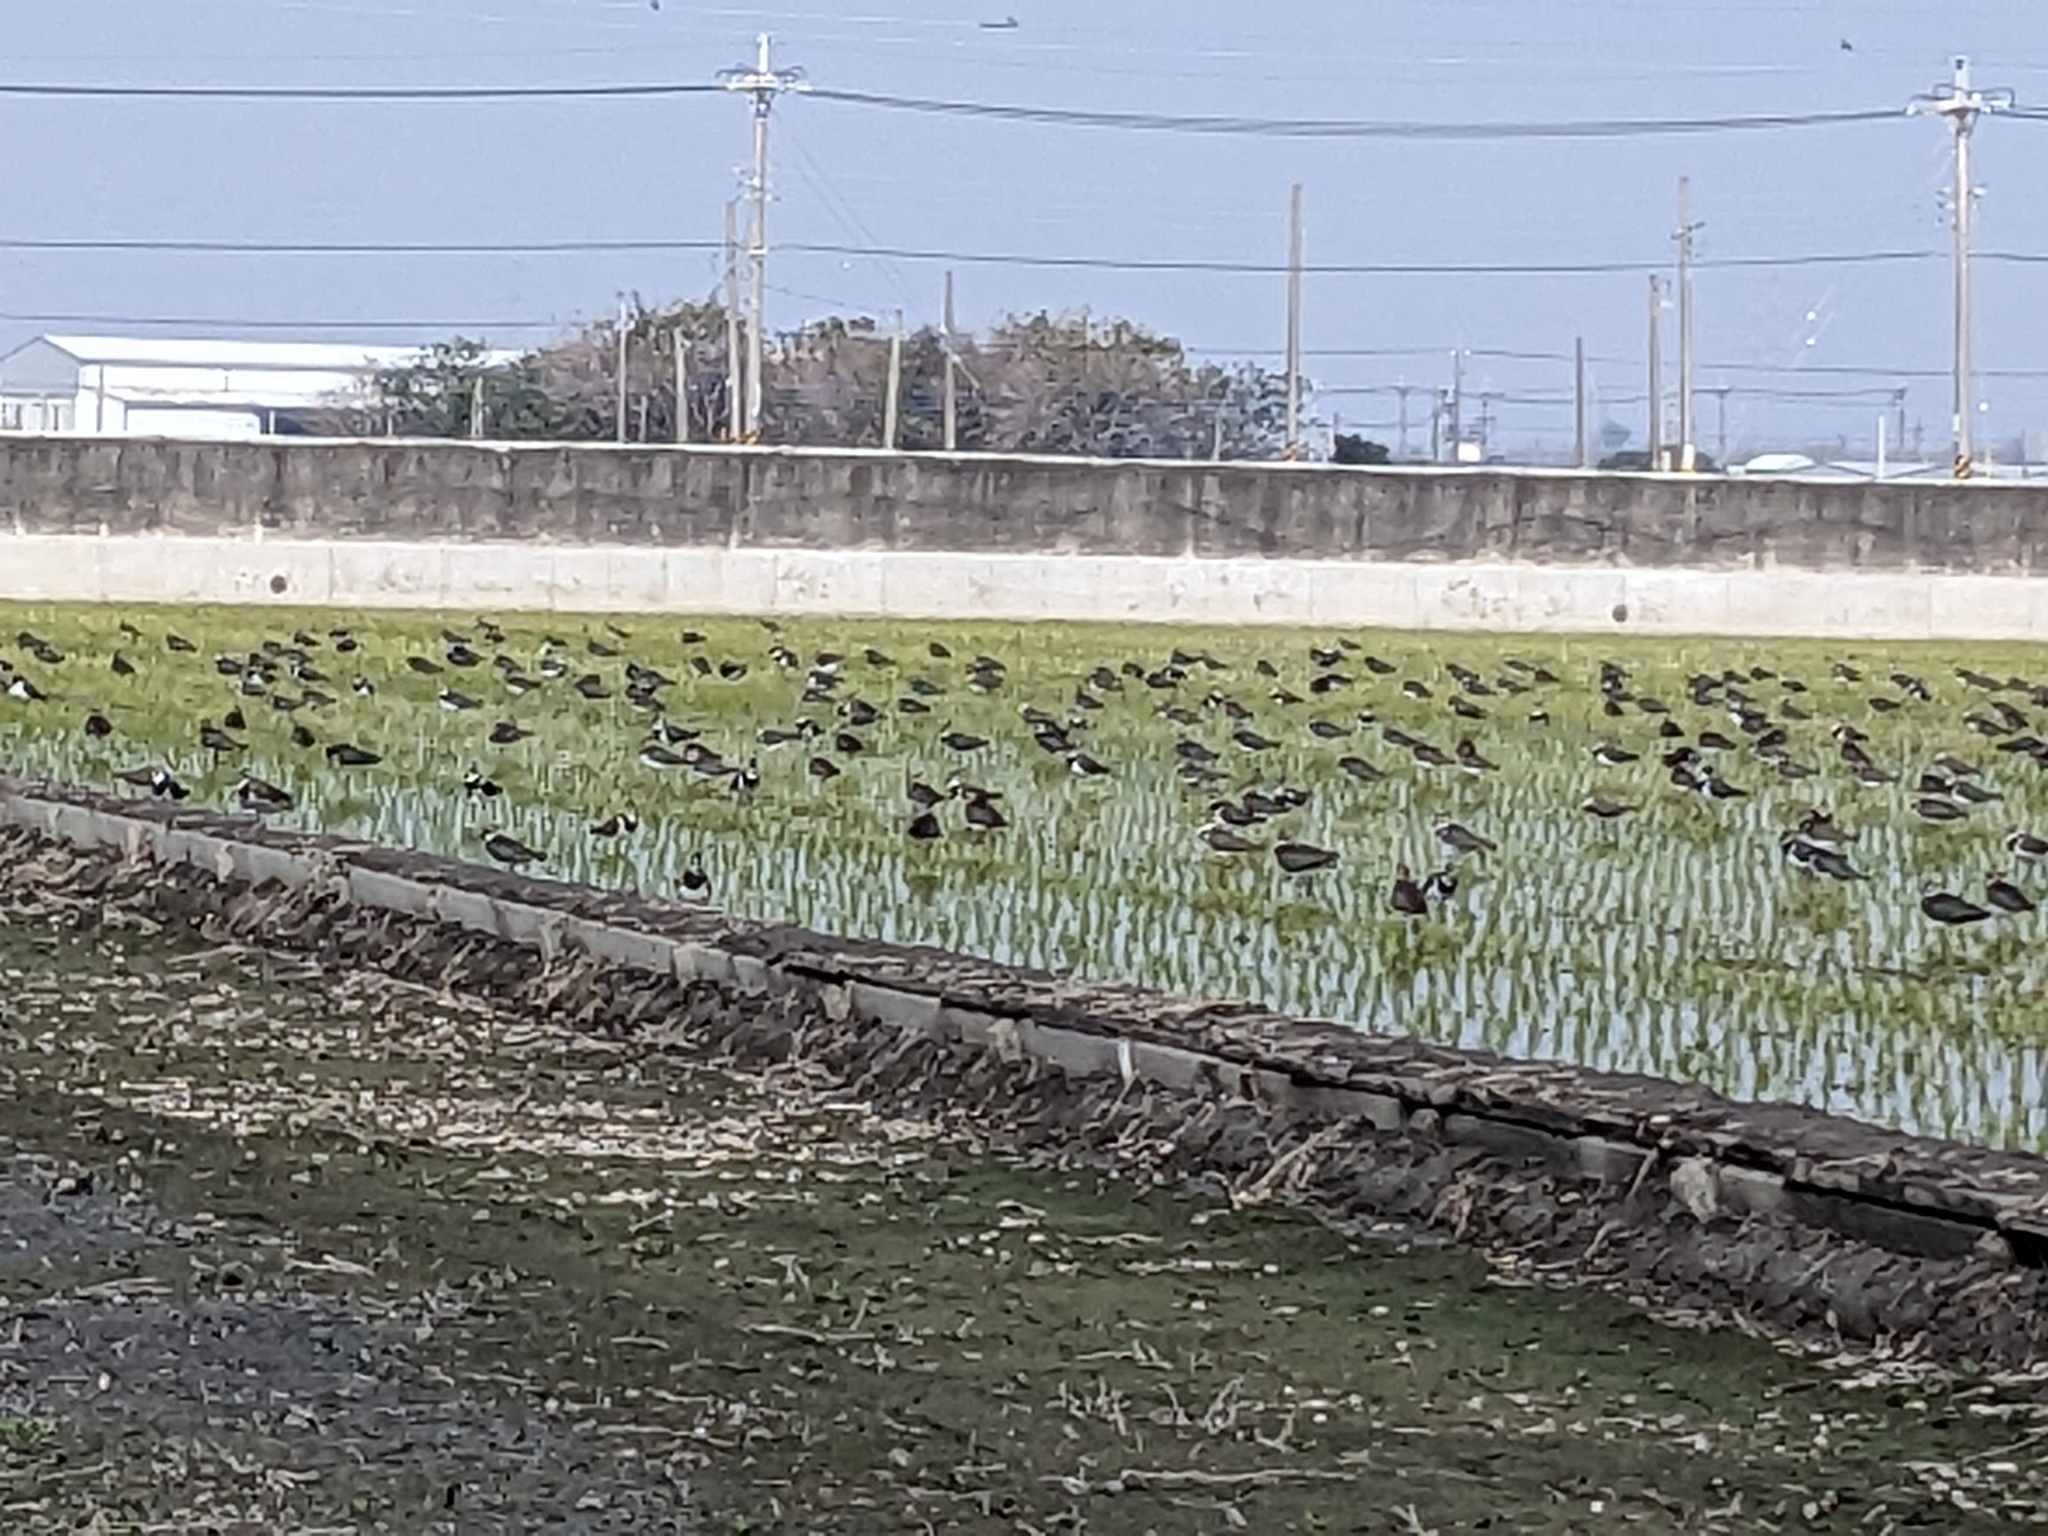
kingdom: Animalia
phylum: Chordata
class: Aves
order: Charadriiformes
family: Charadriidae
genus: Vanellus
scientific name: Vanellus vanellus
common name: Northern lapwing
